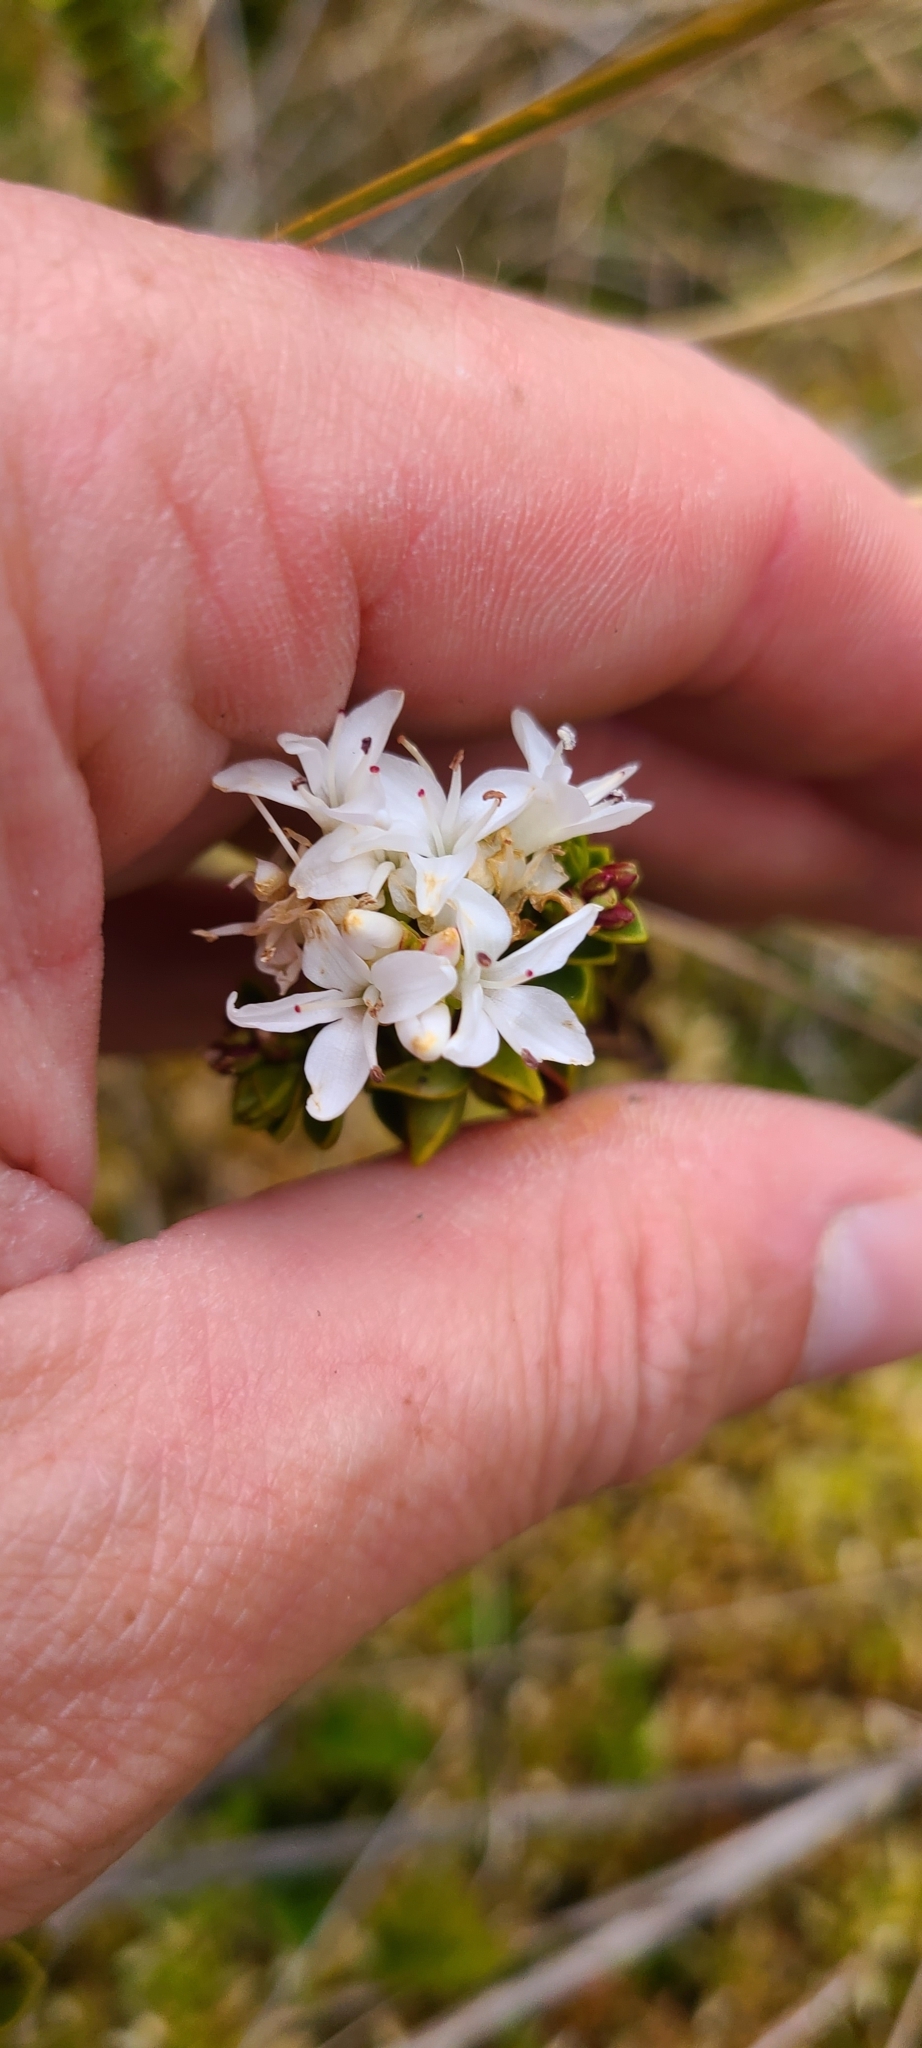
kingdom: Plantae
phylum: Tracheophyta
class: Magnoliopsida
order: Lamiales
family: Plantaginaceae
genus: Veronica
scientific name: Veronica pauciramosa
